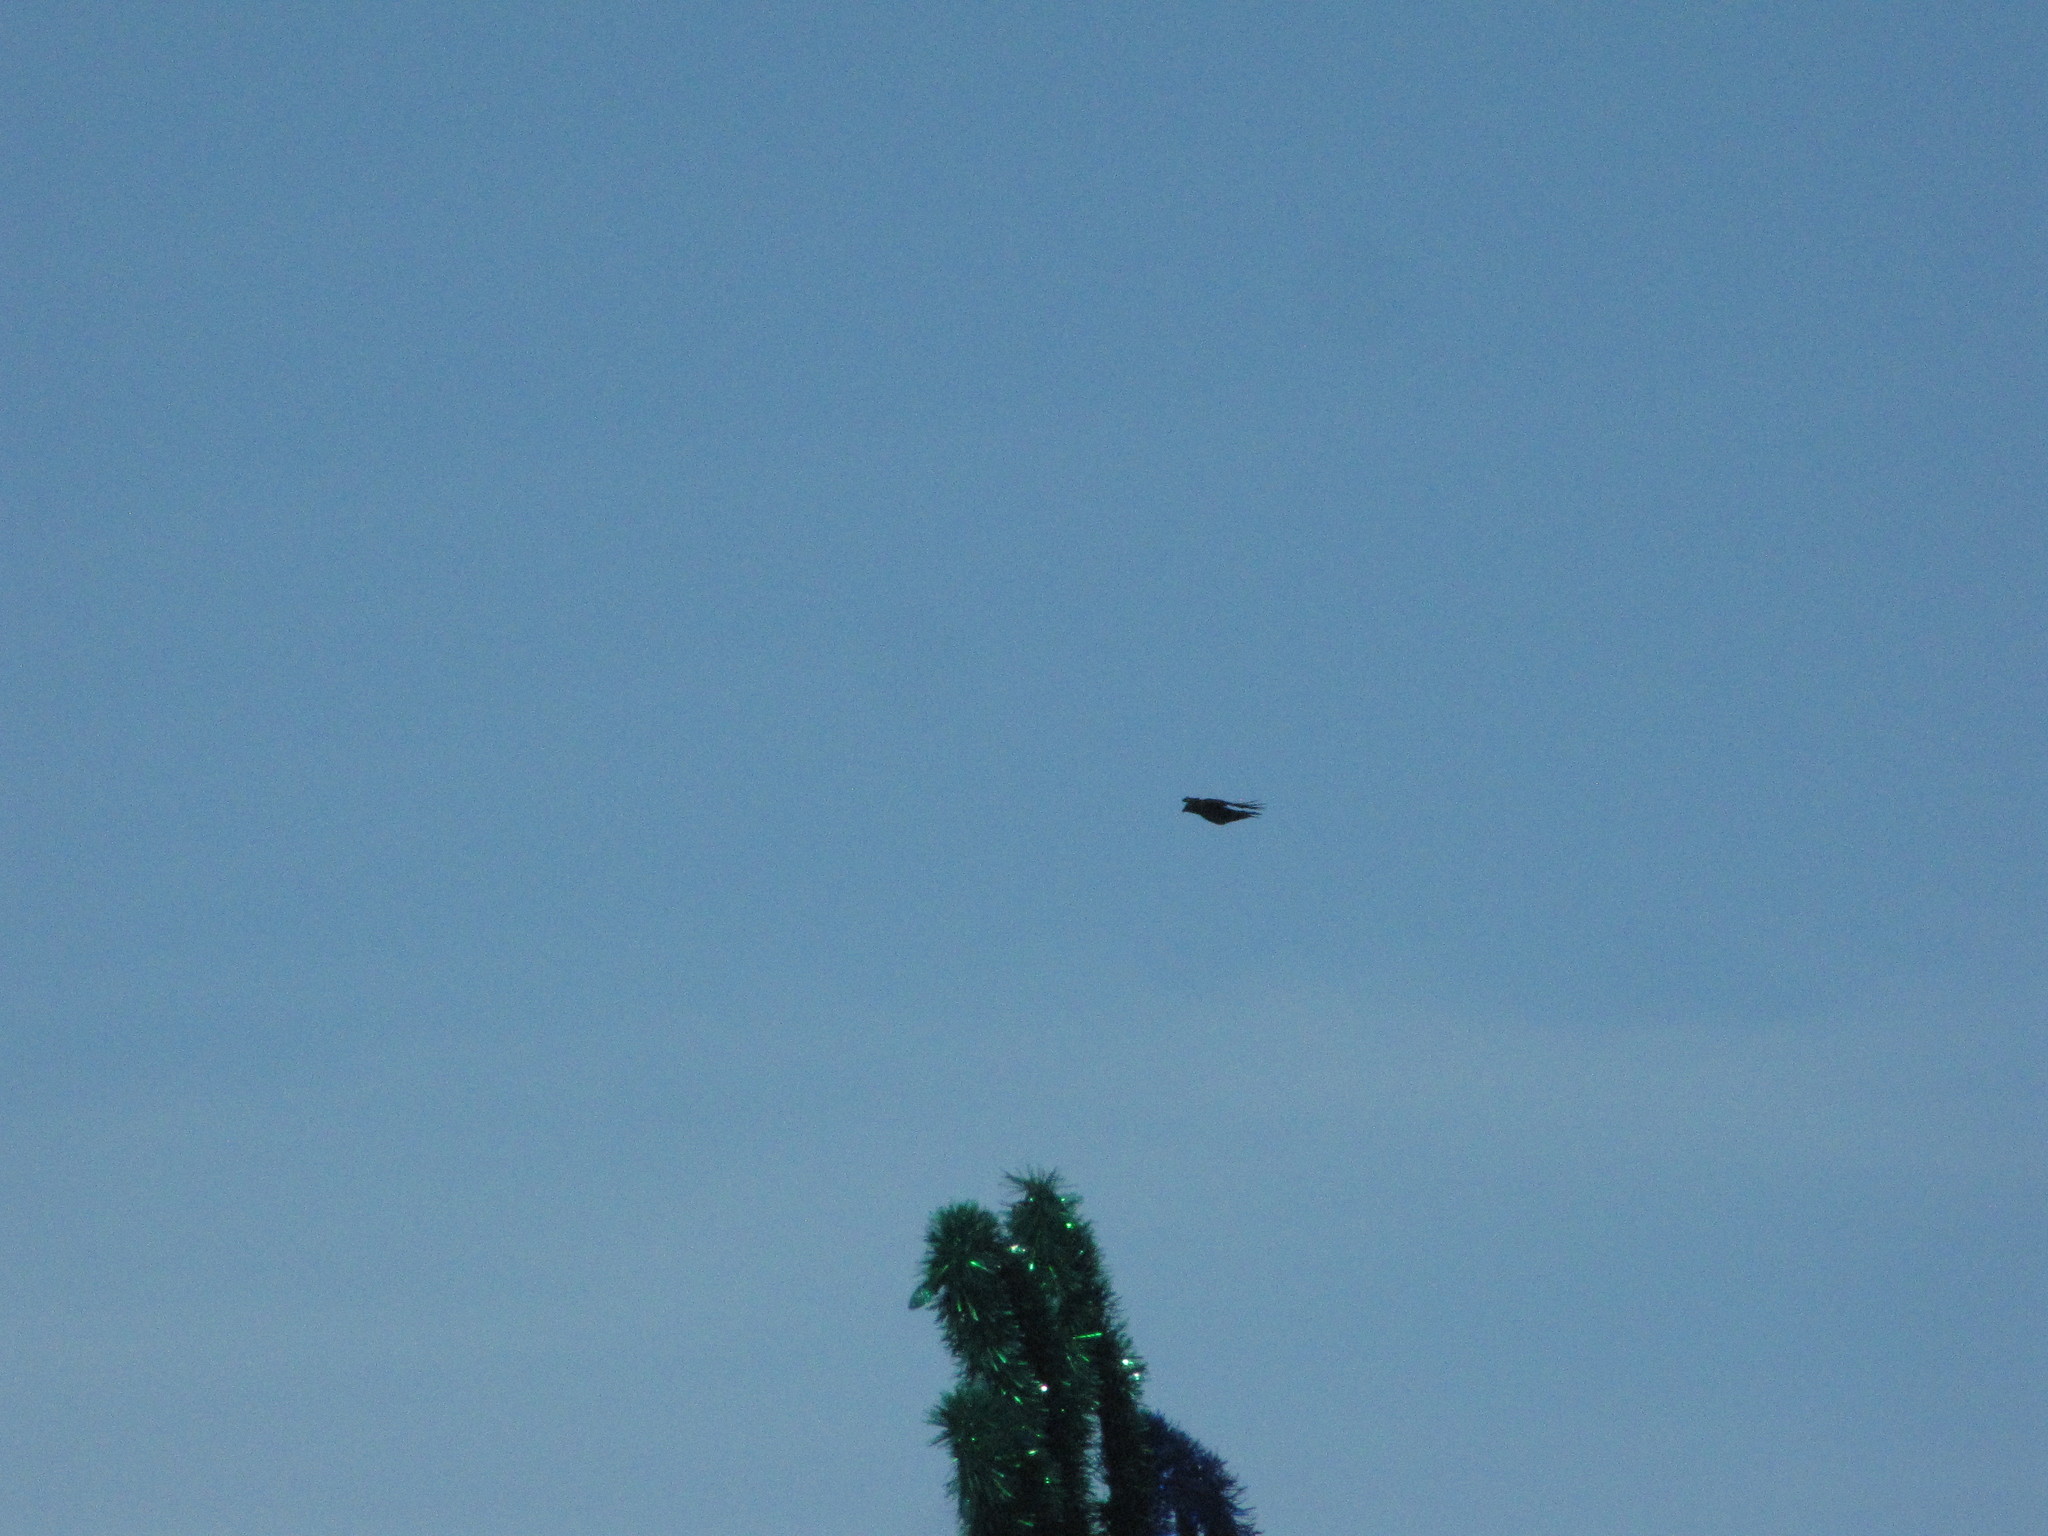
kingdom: Animalia
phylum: Chordata
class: Aves
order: Passeriformes
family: Corvidae
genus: Corvus
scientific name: Corvus brachyrhynchos
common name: American crow
